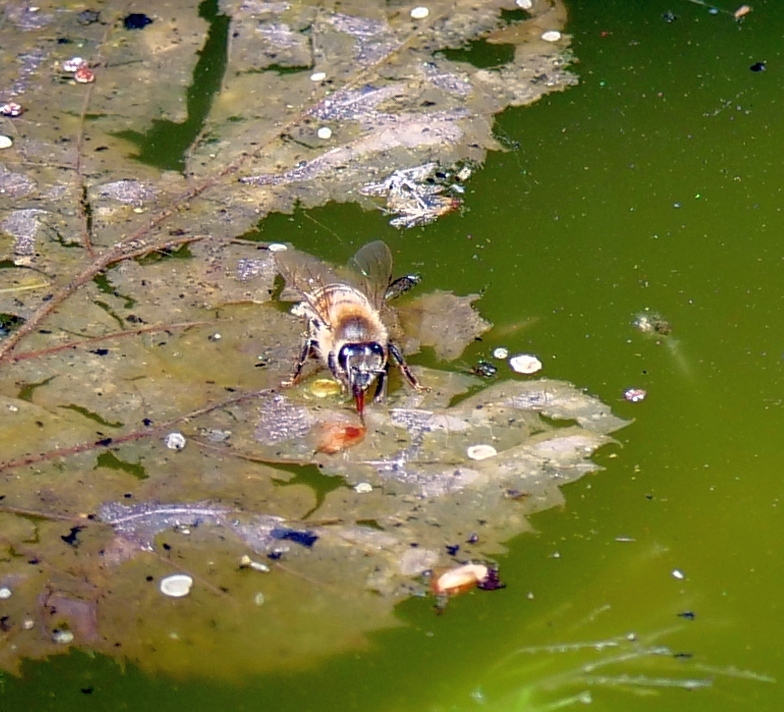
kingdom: Animalia
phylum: Arthropoda
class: Insecta
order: Hymenoptera
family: Apidae
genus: Apis
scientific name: Apis mellifera
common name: Honey bee
